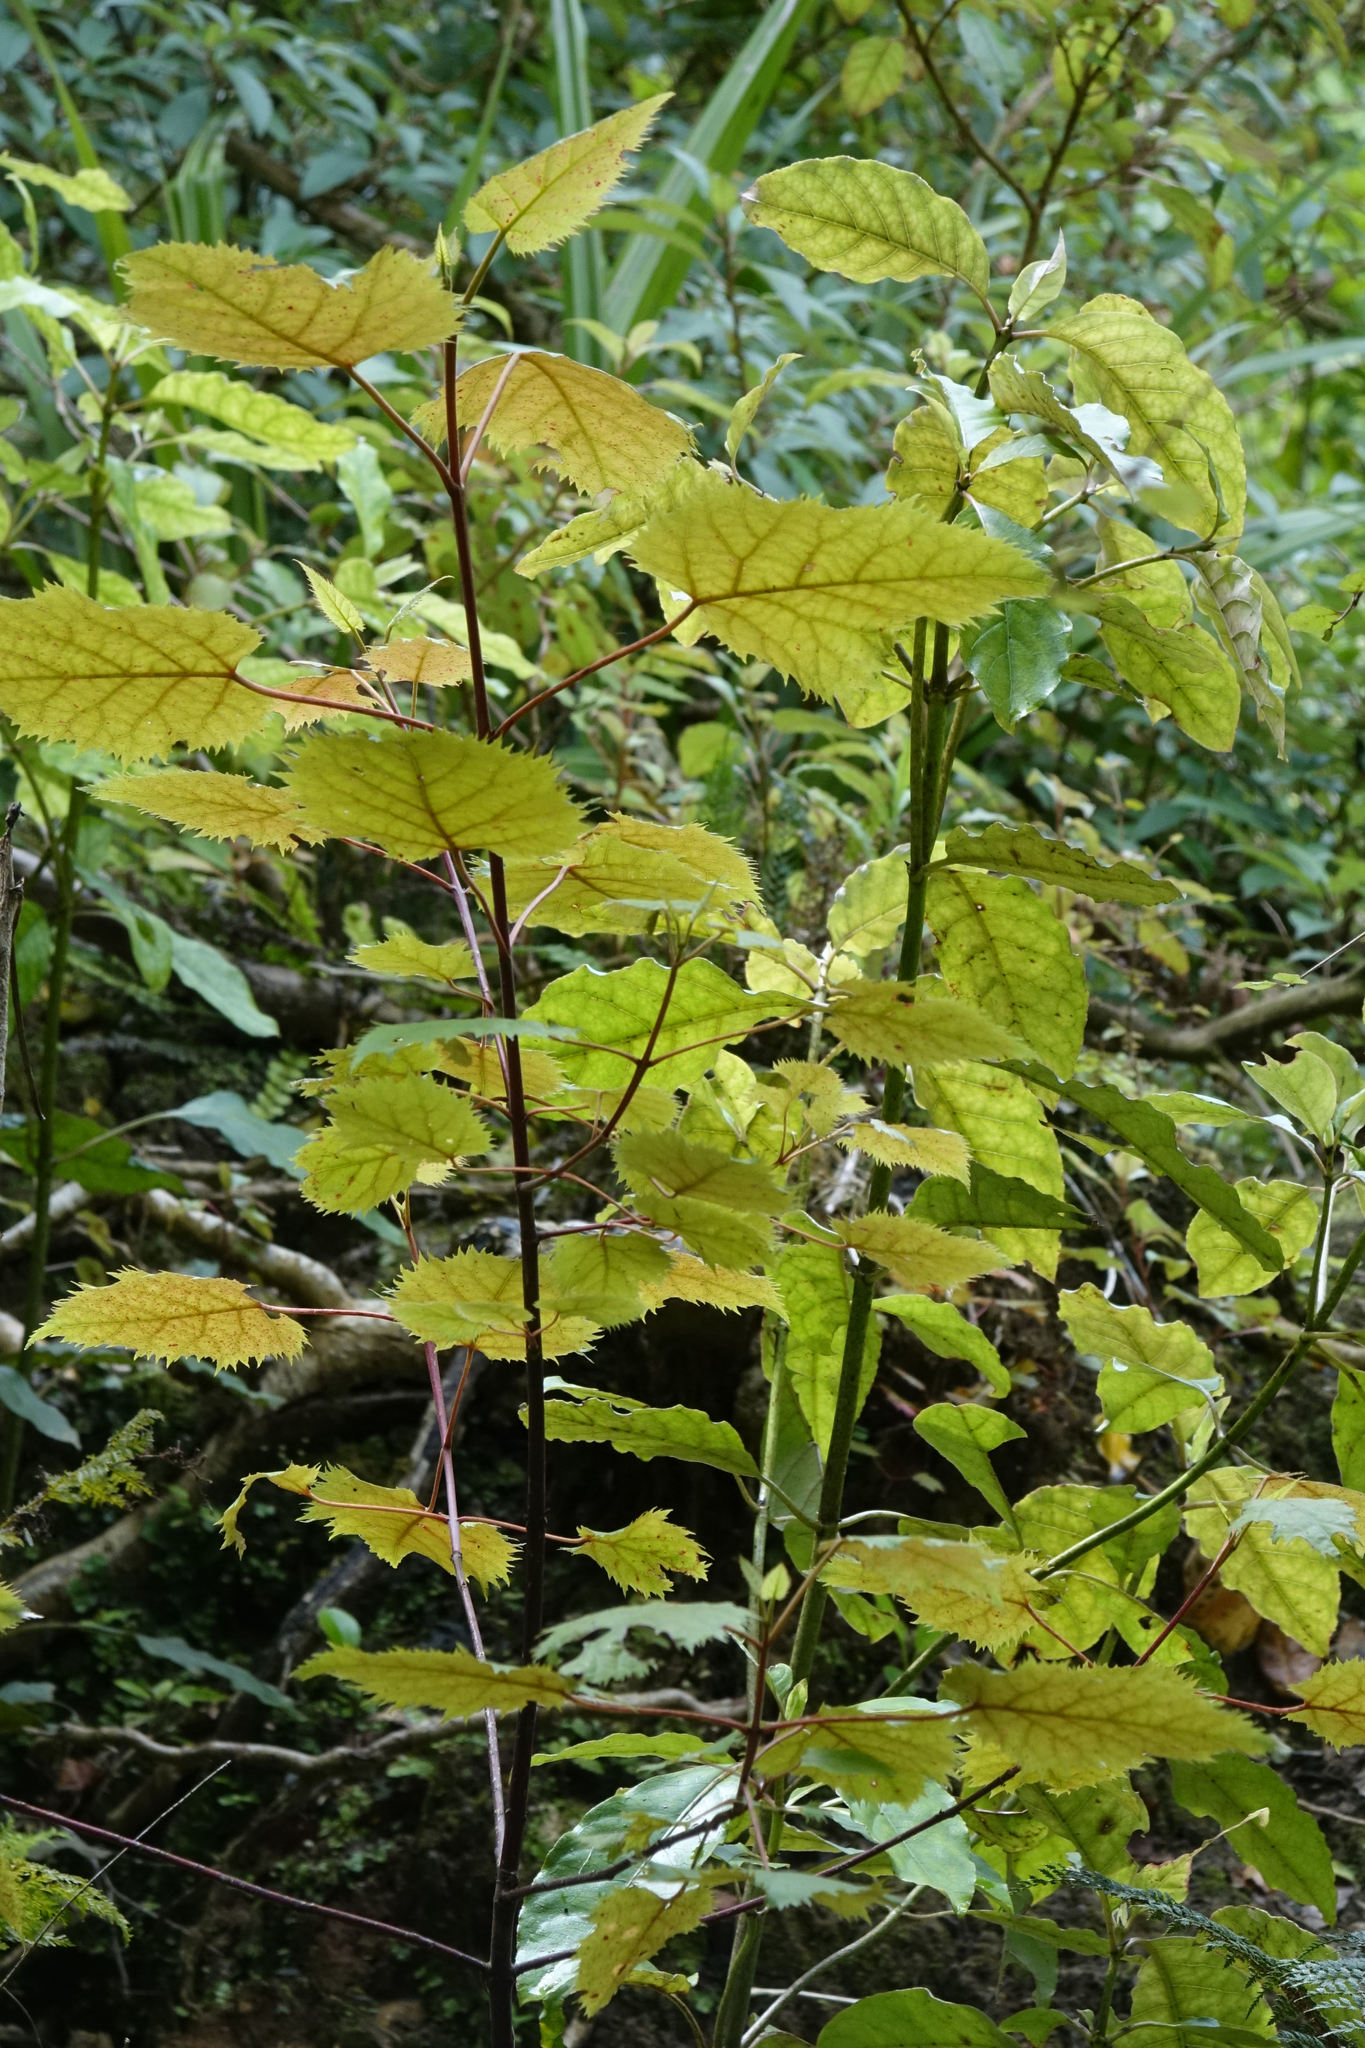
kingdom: Plantae
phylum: Tracheophyta
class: Magnoliopsida
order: Oxalidales
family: Elaeocarpaceae
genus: Aristotelia
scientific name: Aristotelia serrata
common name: New zealand wineberry
